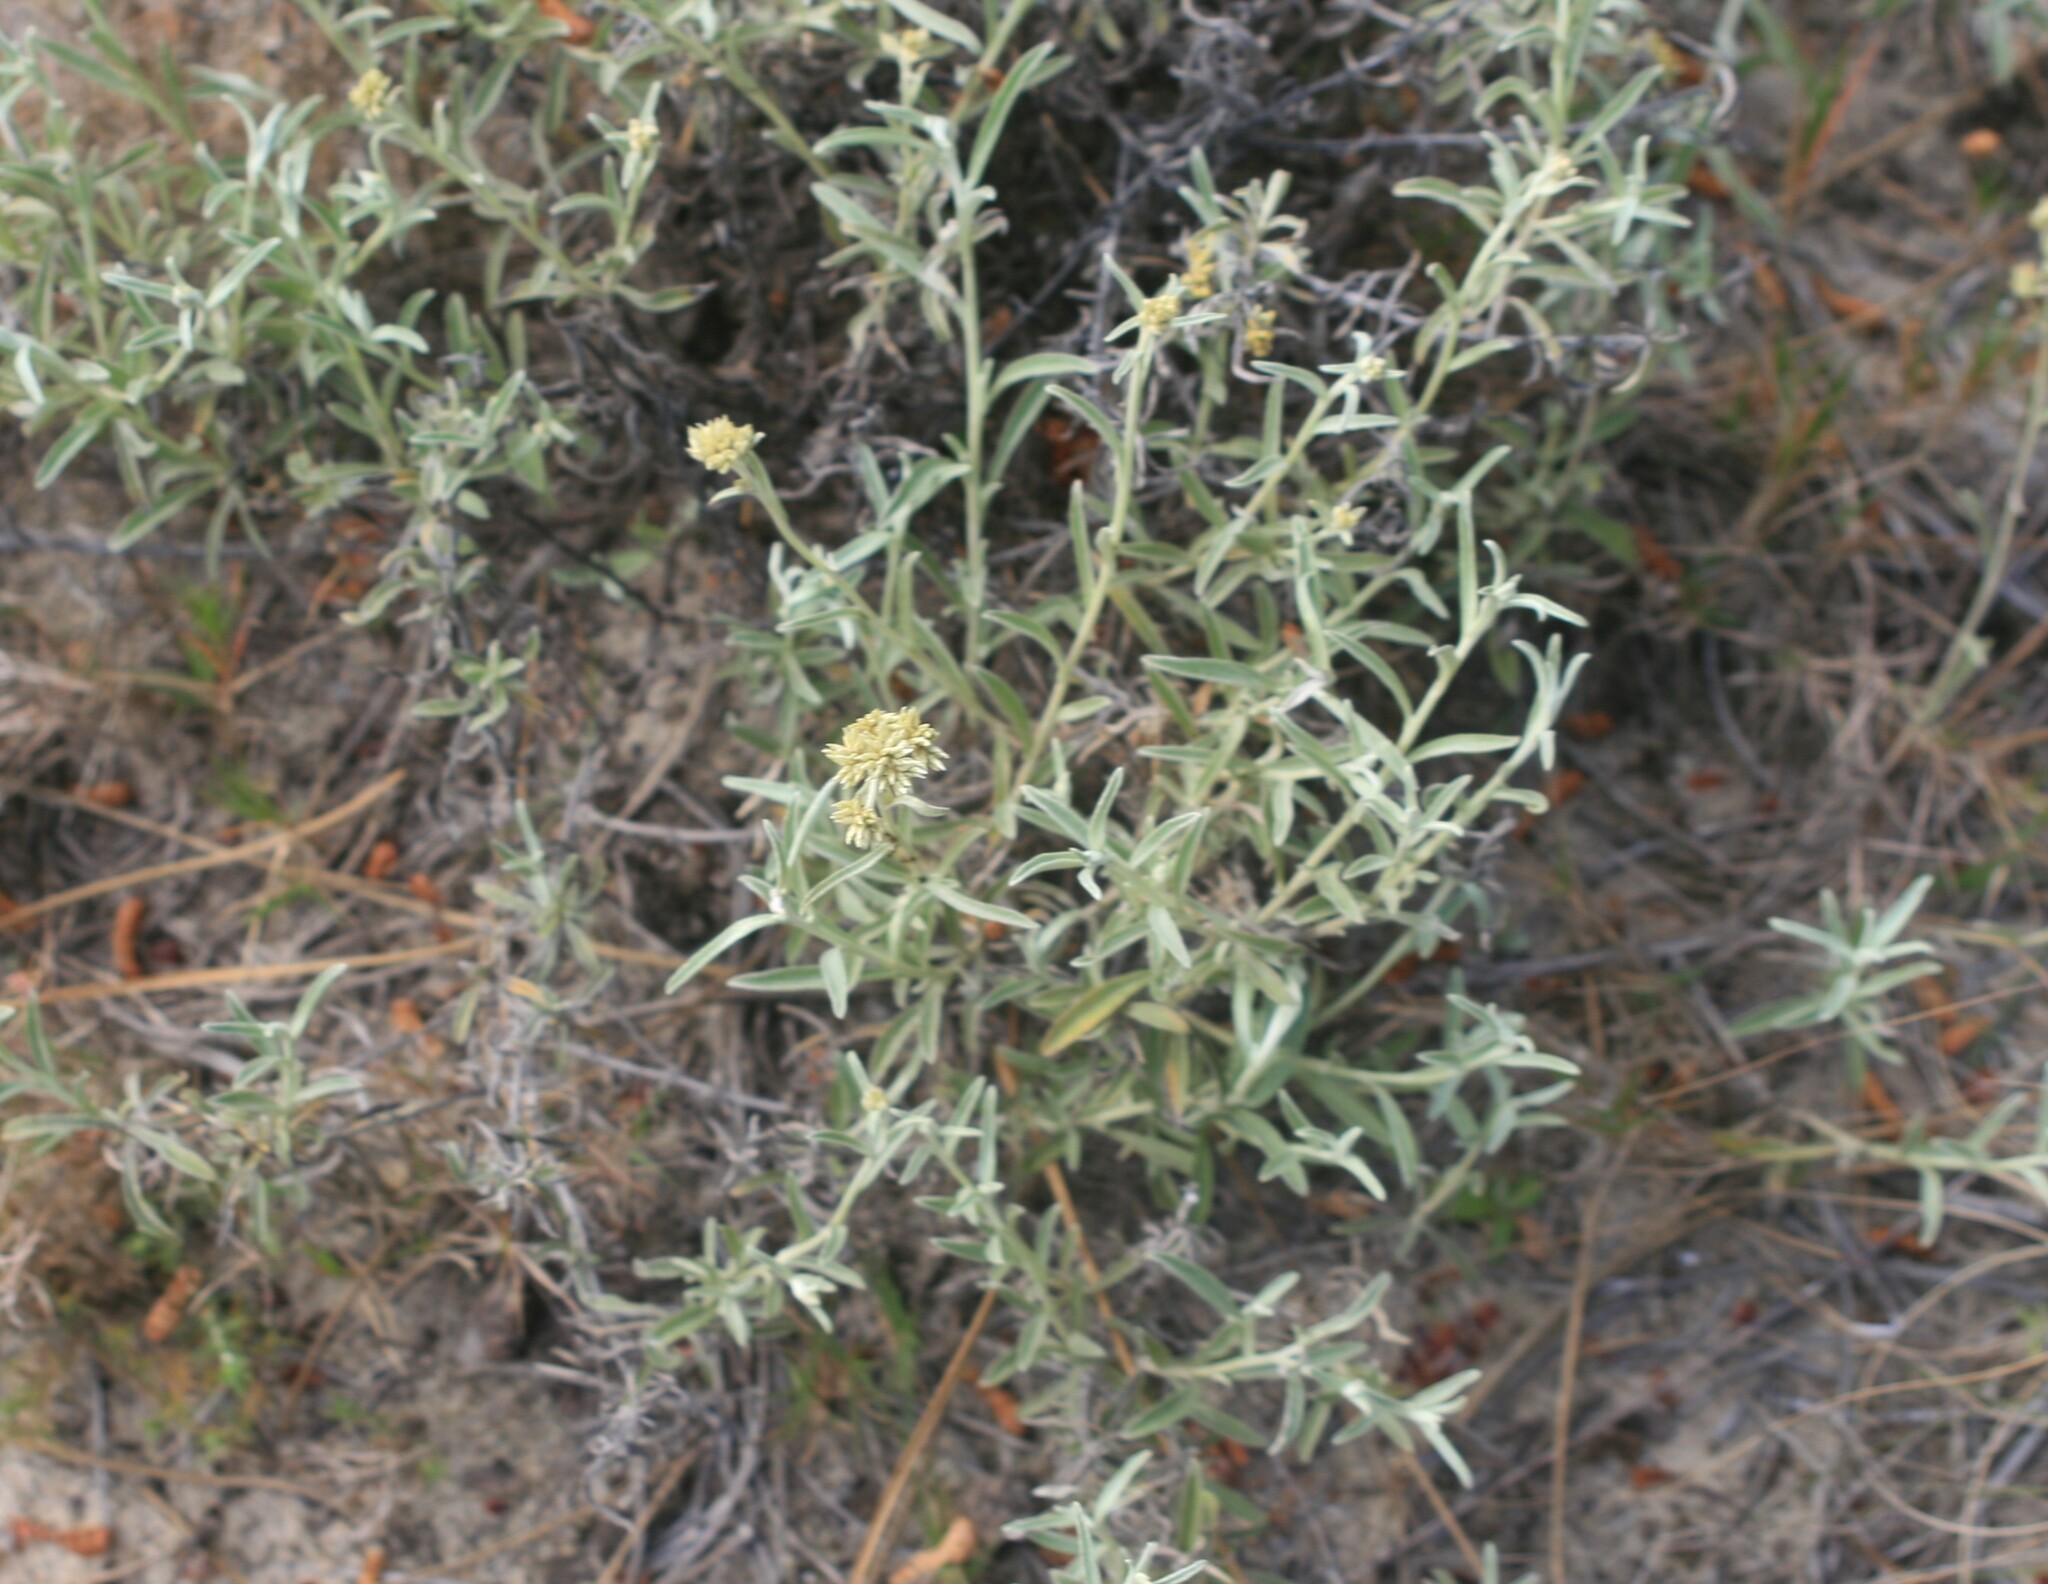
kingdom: Plantae
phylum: Tracheophyta
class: Magnoliopsida
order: Asterales
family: Asteraceae
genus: Achyrocline
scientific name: Achyrocline flaccida
